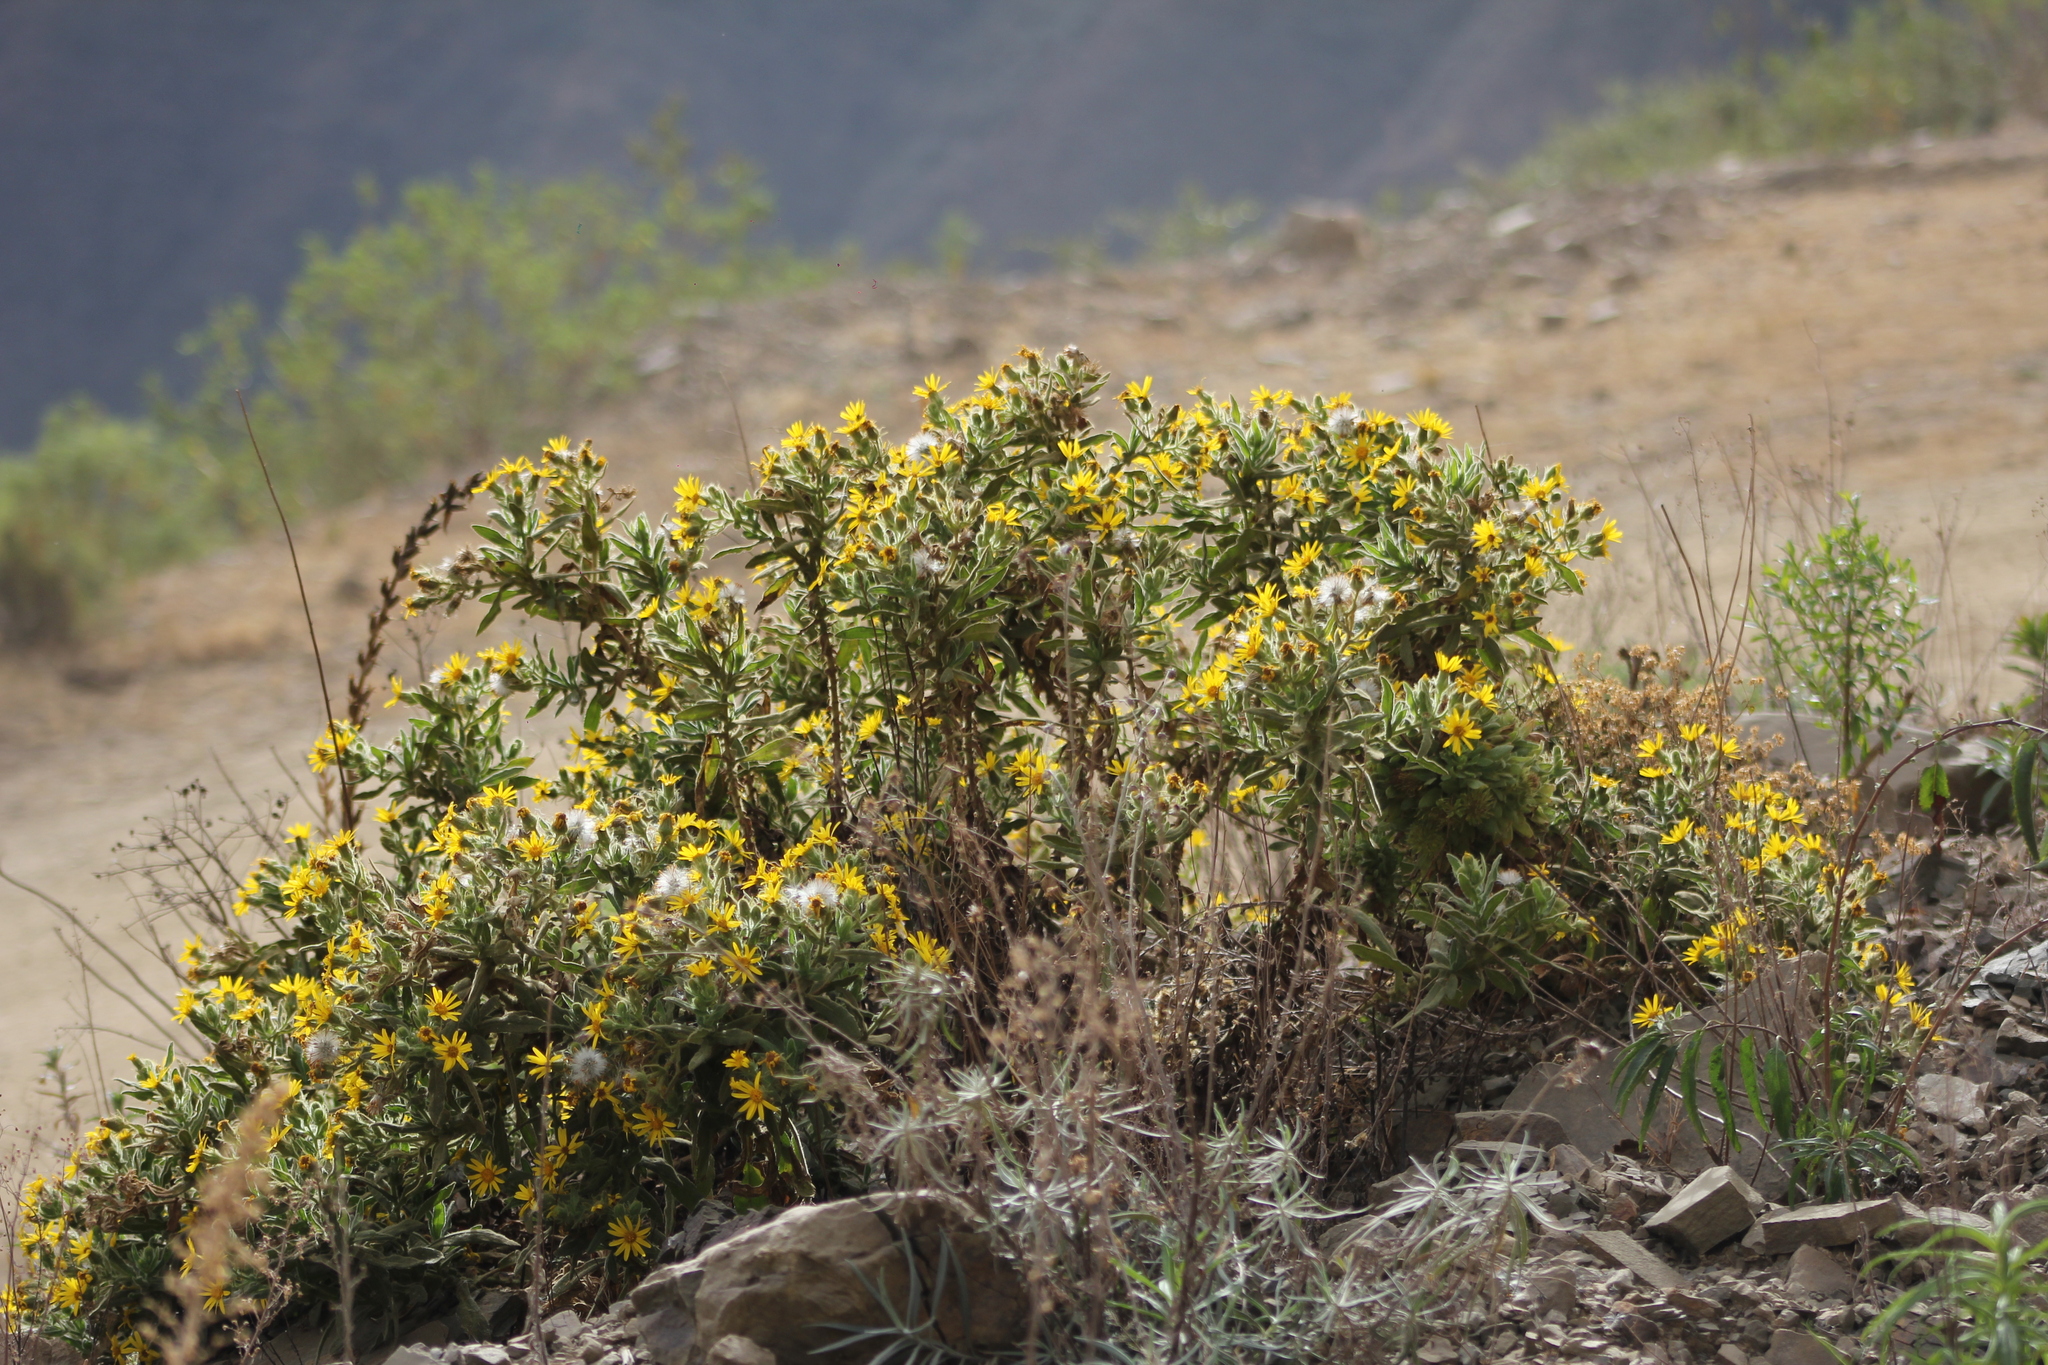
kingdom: Plantae
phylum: Tracheophyta
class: Magnoliopsida
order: Asterales
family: Asteraceae
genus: Senecio
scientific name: Senecio crepidifolius
